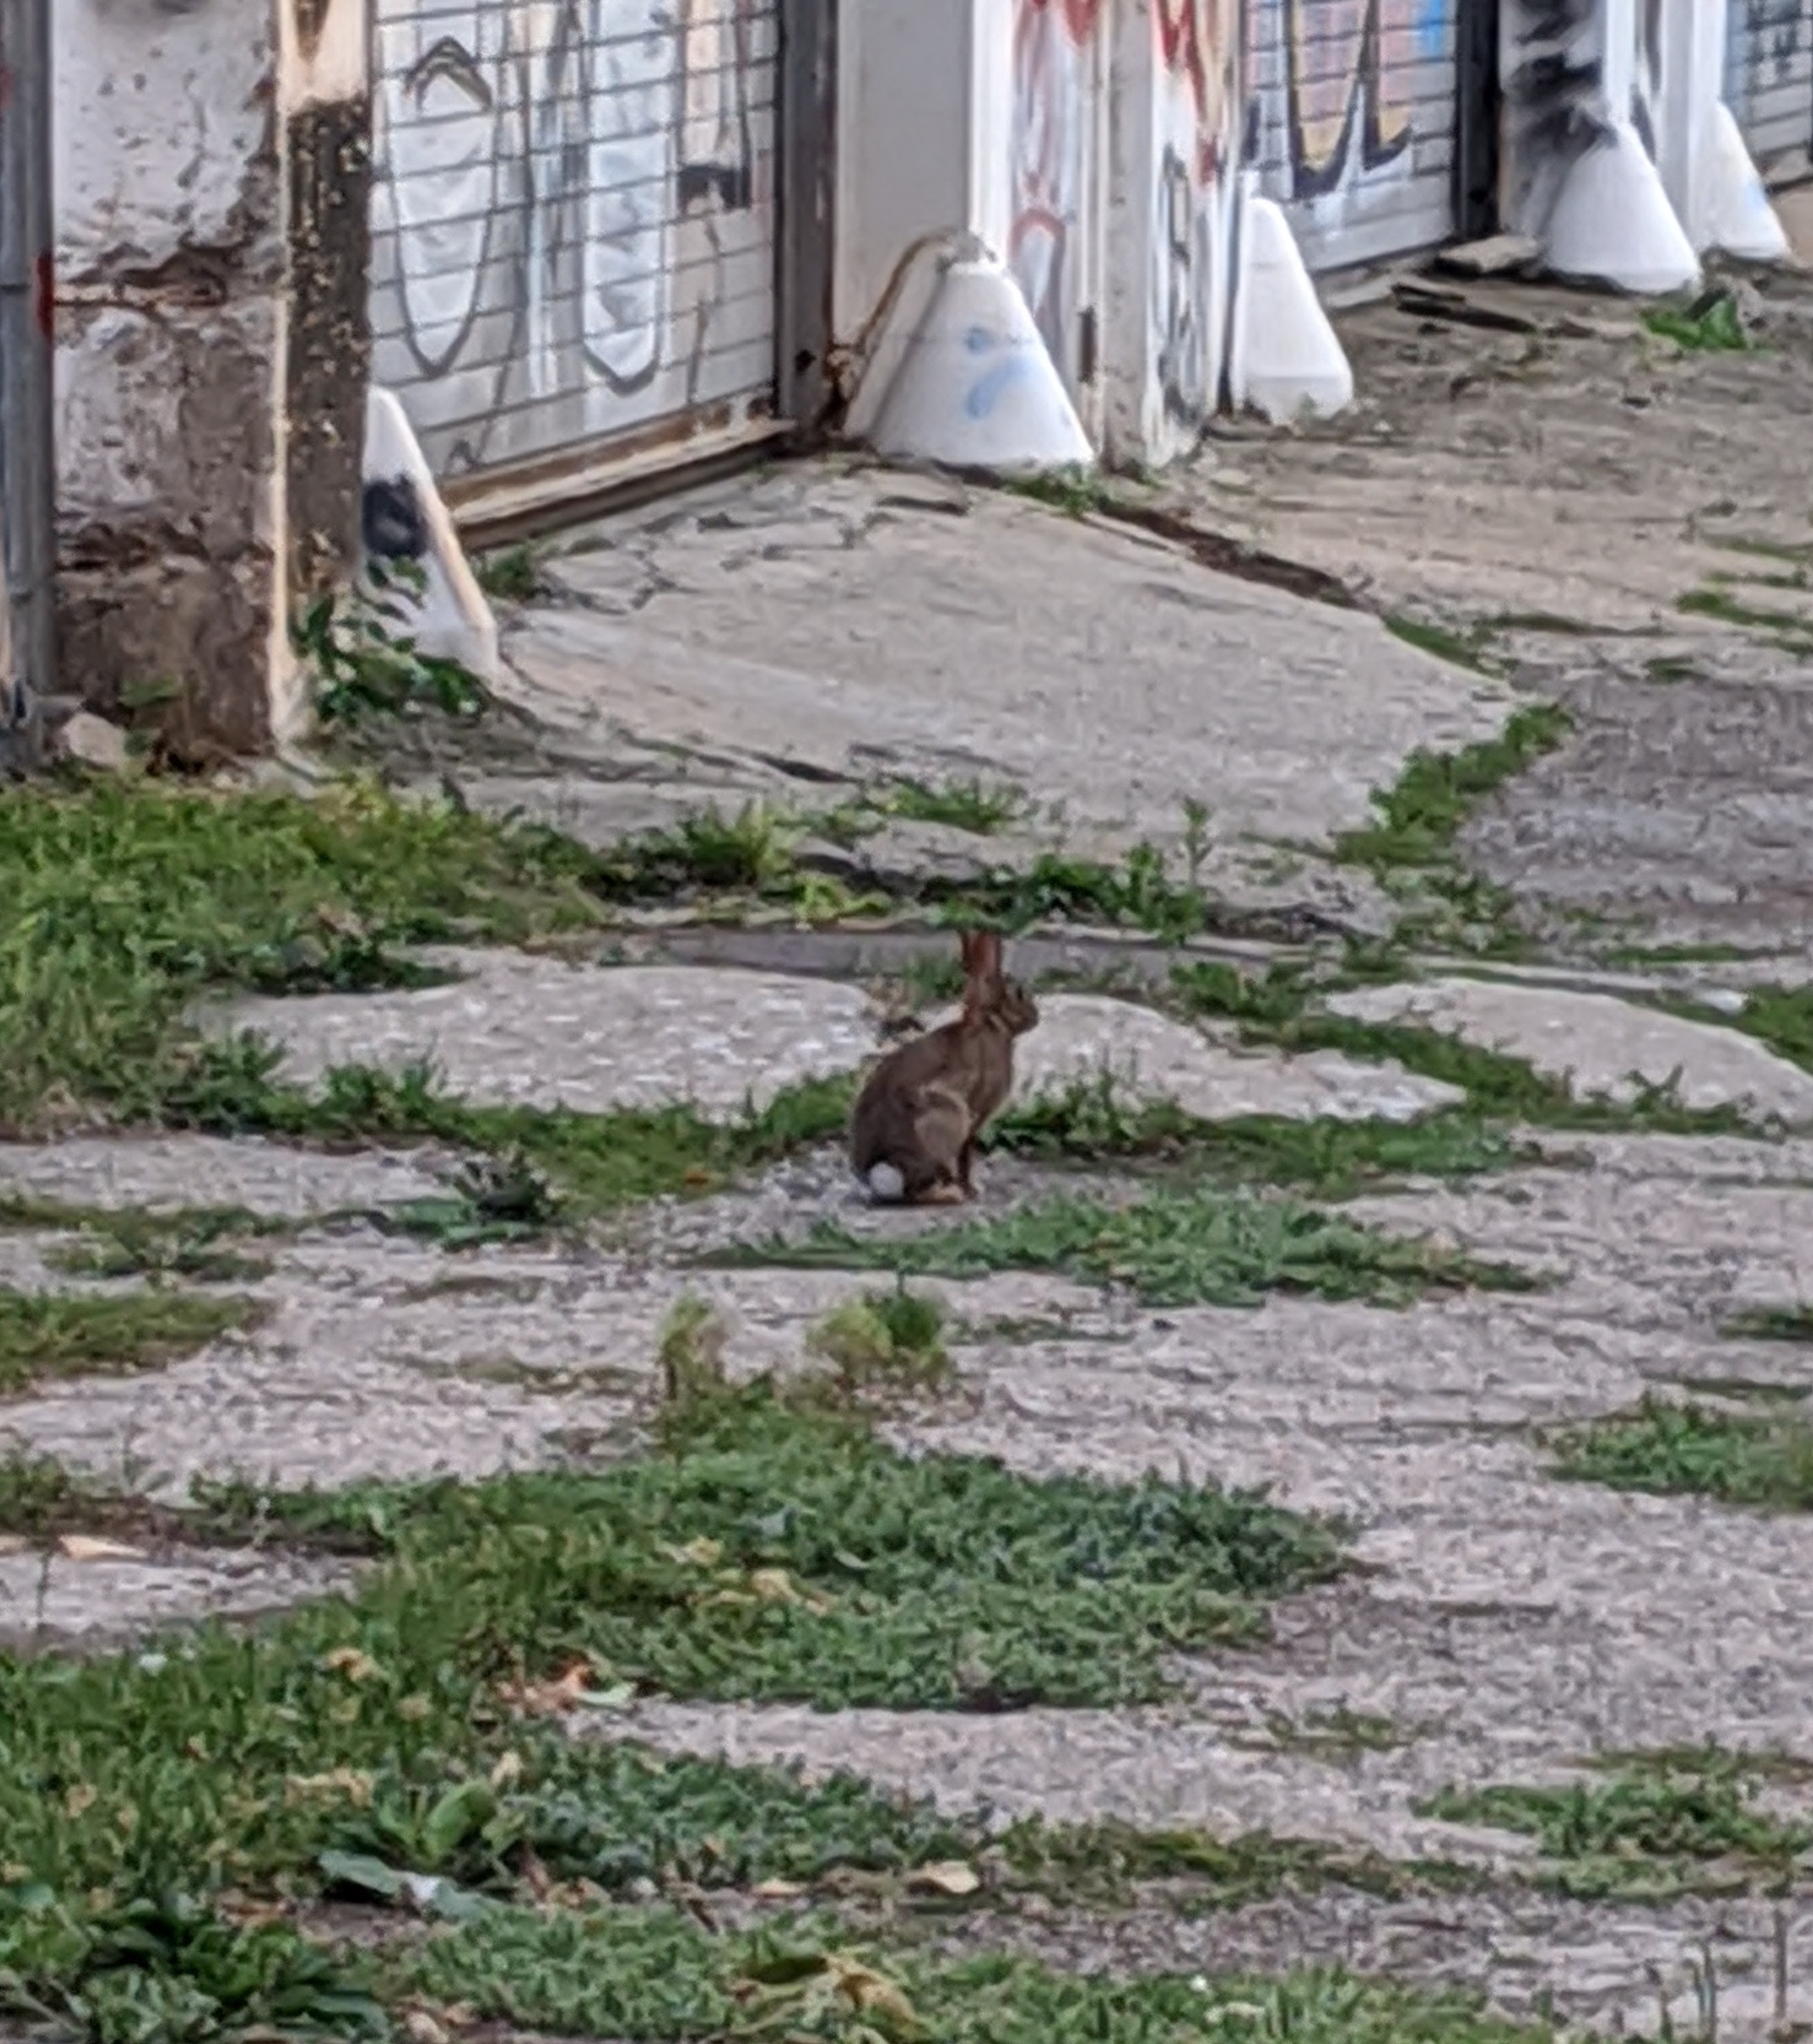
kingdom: Animalia
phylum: Chordata
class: Mammalia
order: Lagomorpha
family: Leporidae
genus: Sylvilagus
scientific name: Sylvilagus floridanus
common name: Eastern cottontail
